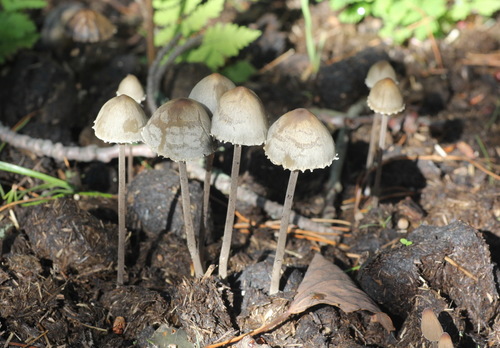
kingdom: Fungi
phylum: Basidiomycota
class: Agaricomycetes
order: Agaricales
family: Bolbitiaceae
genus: Panaeolus
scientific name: Panaeolus papilionaceus
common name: Petticoat mottlegill
